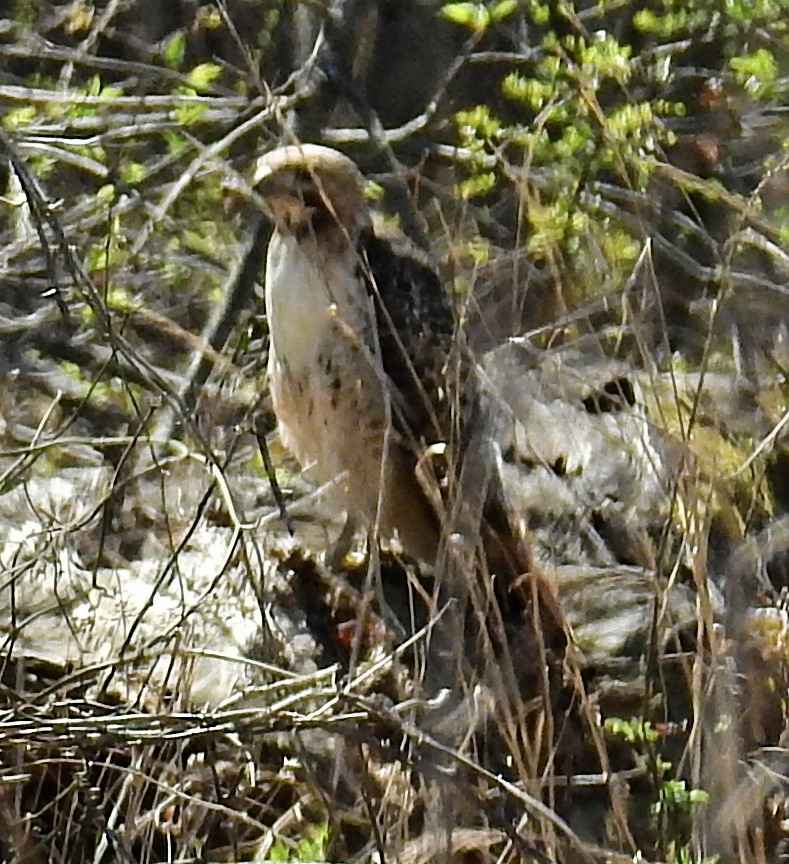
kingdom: Animalia
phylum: Chordata
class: Aves
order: Accipitriformes
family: Accipitridae
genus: Buteo
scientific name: Buteo jamaicensis
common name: Red-tailed hawk
